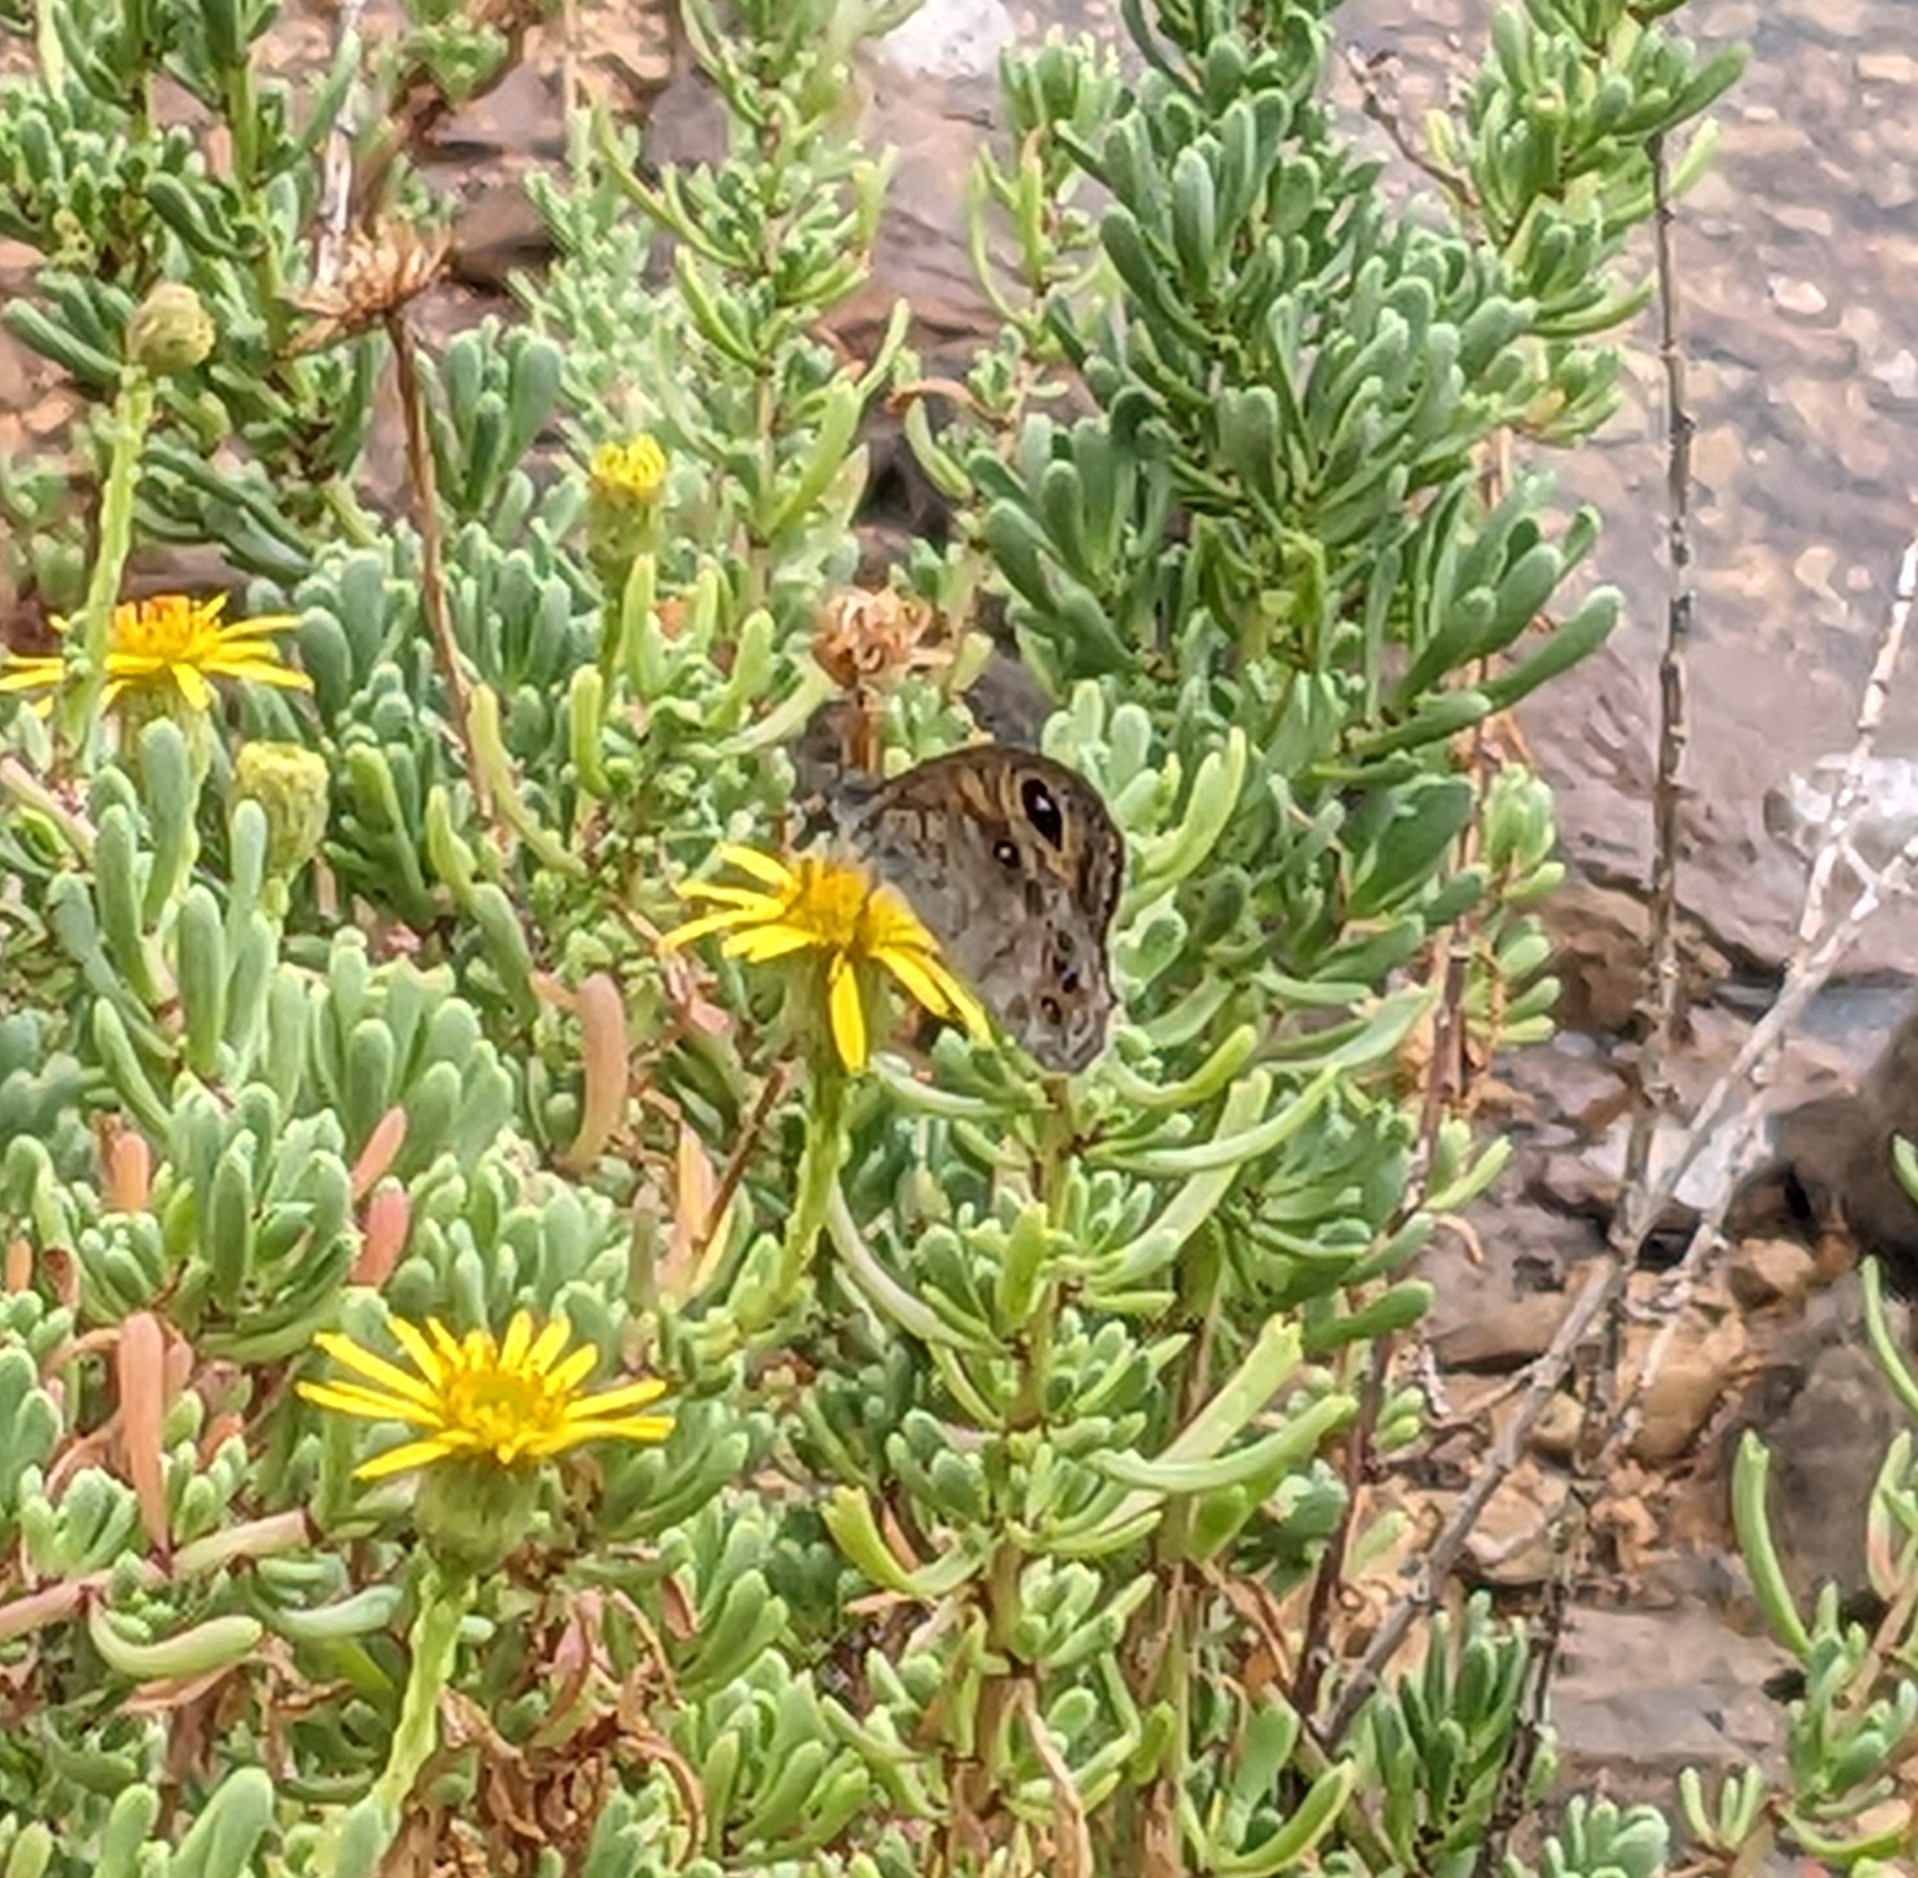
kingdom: Animalia
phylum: Arthropoda
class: Insecta
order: Lepidoptera
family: Nymphalidae
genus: Pararge
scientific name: Pararge Lasiommata maera
